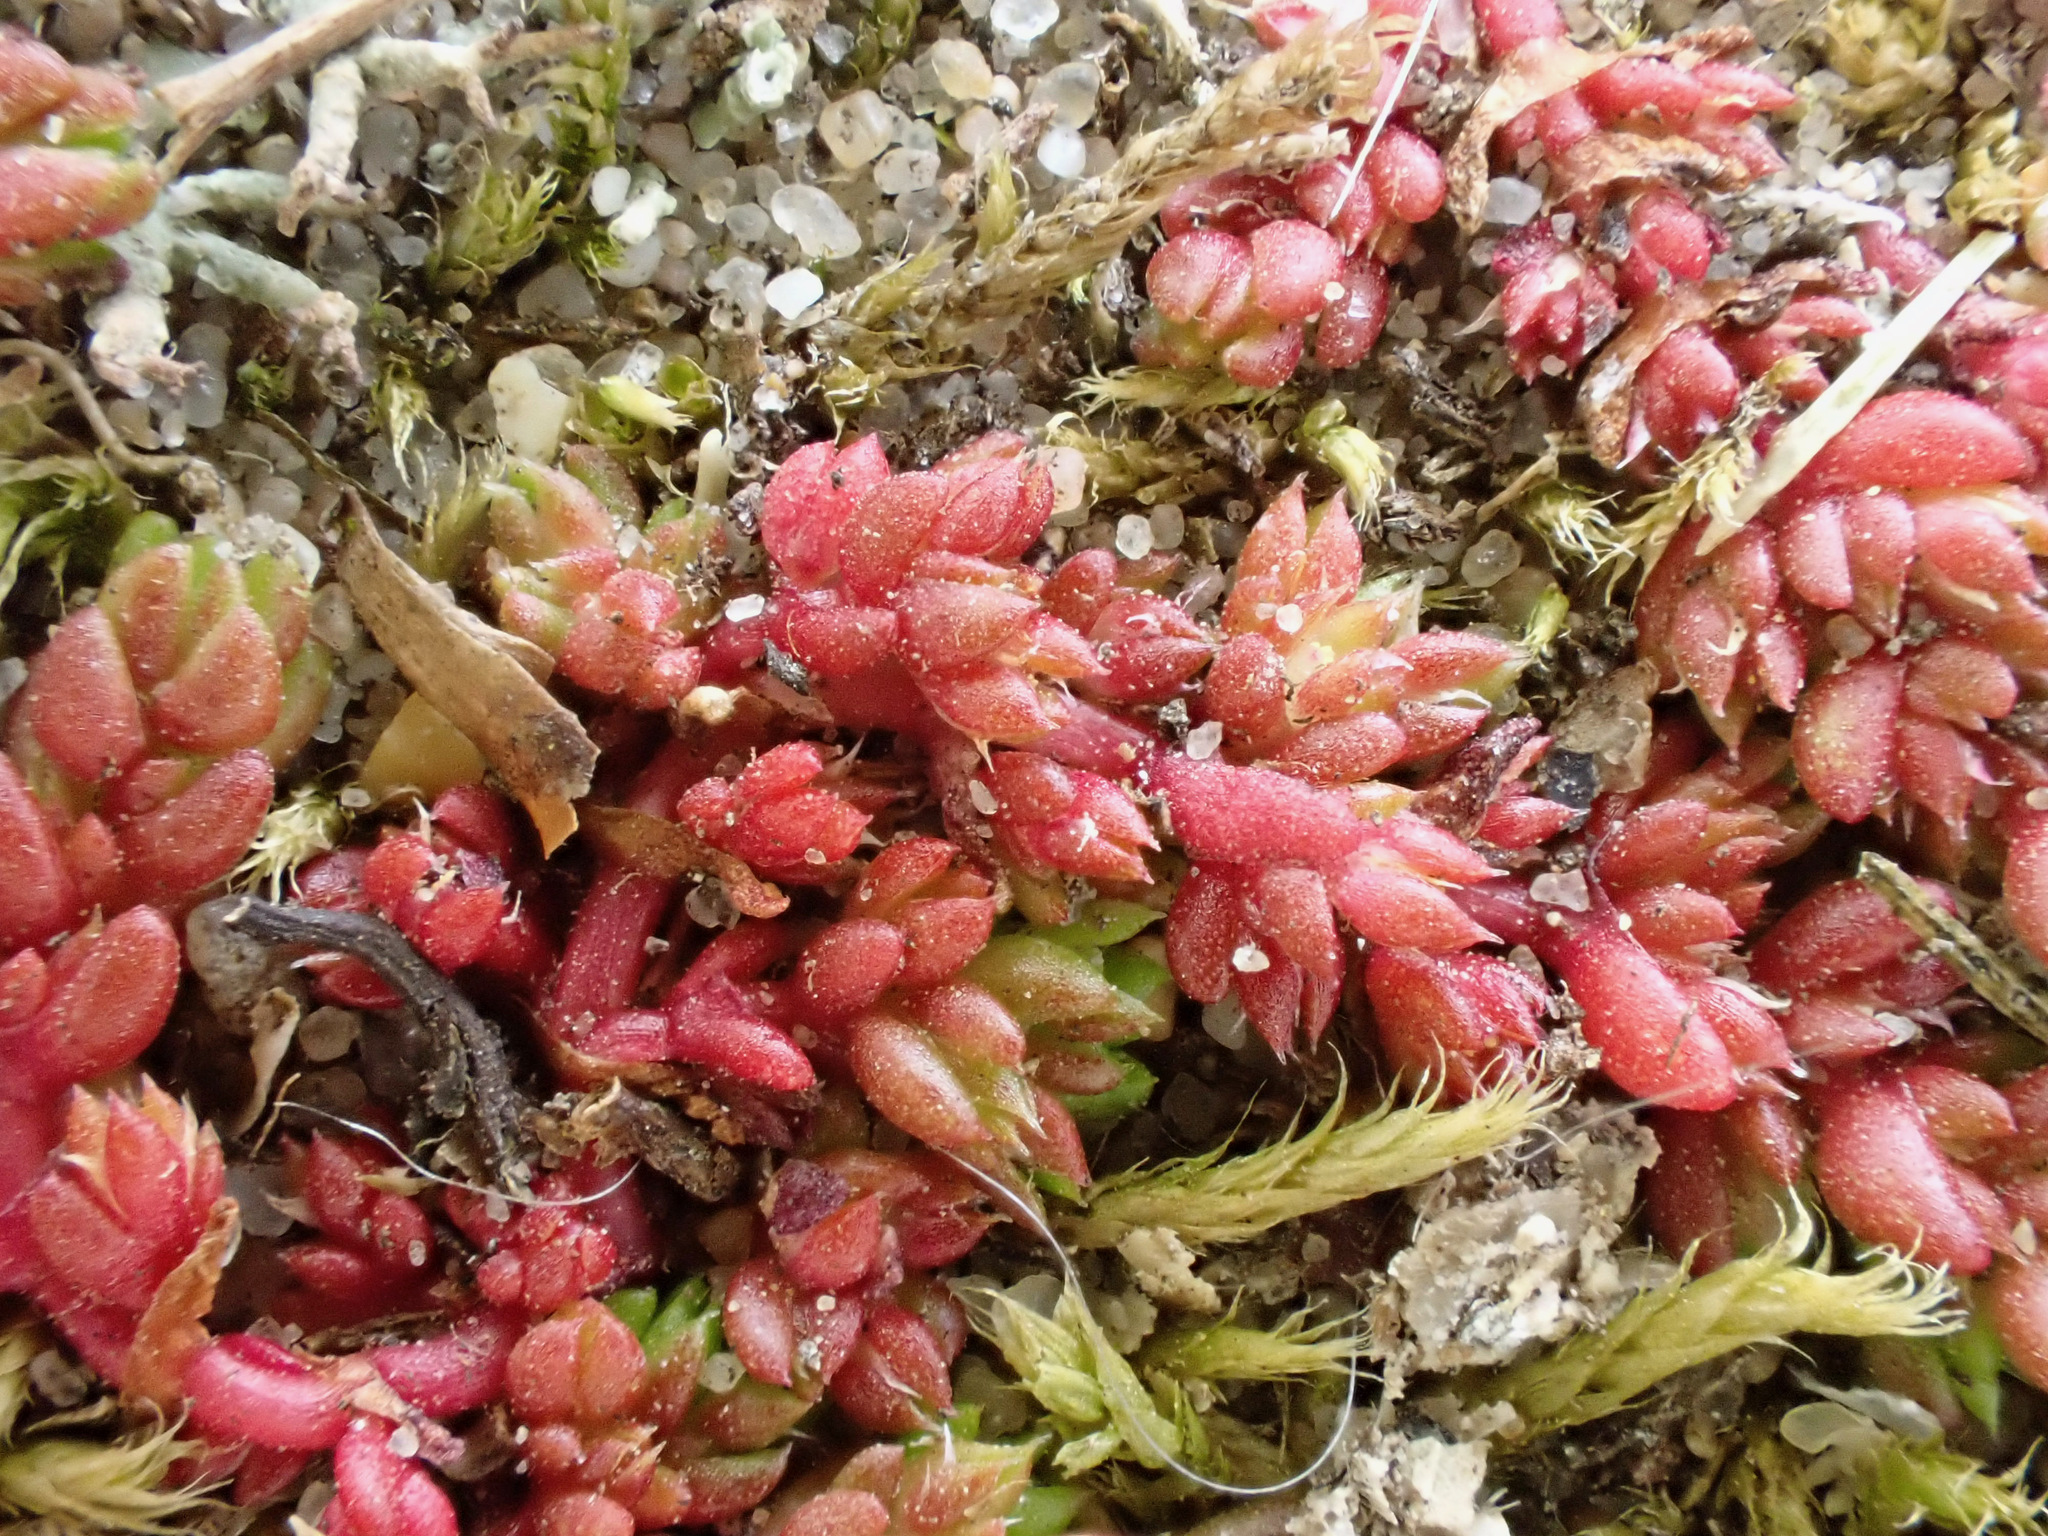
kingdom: Plantae
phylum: Tracheophyta
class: Magnoliopsida
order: Saxifragales
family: Crassulaceae
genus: Crassula
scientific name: Crassula tillaea
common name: Mossy stonecrop
